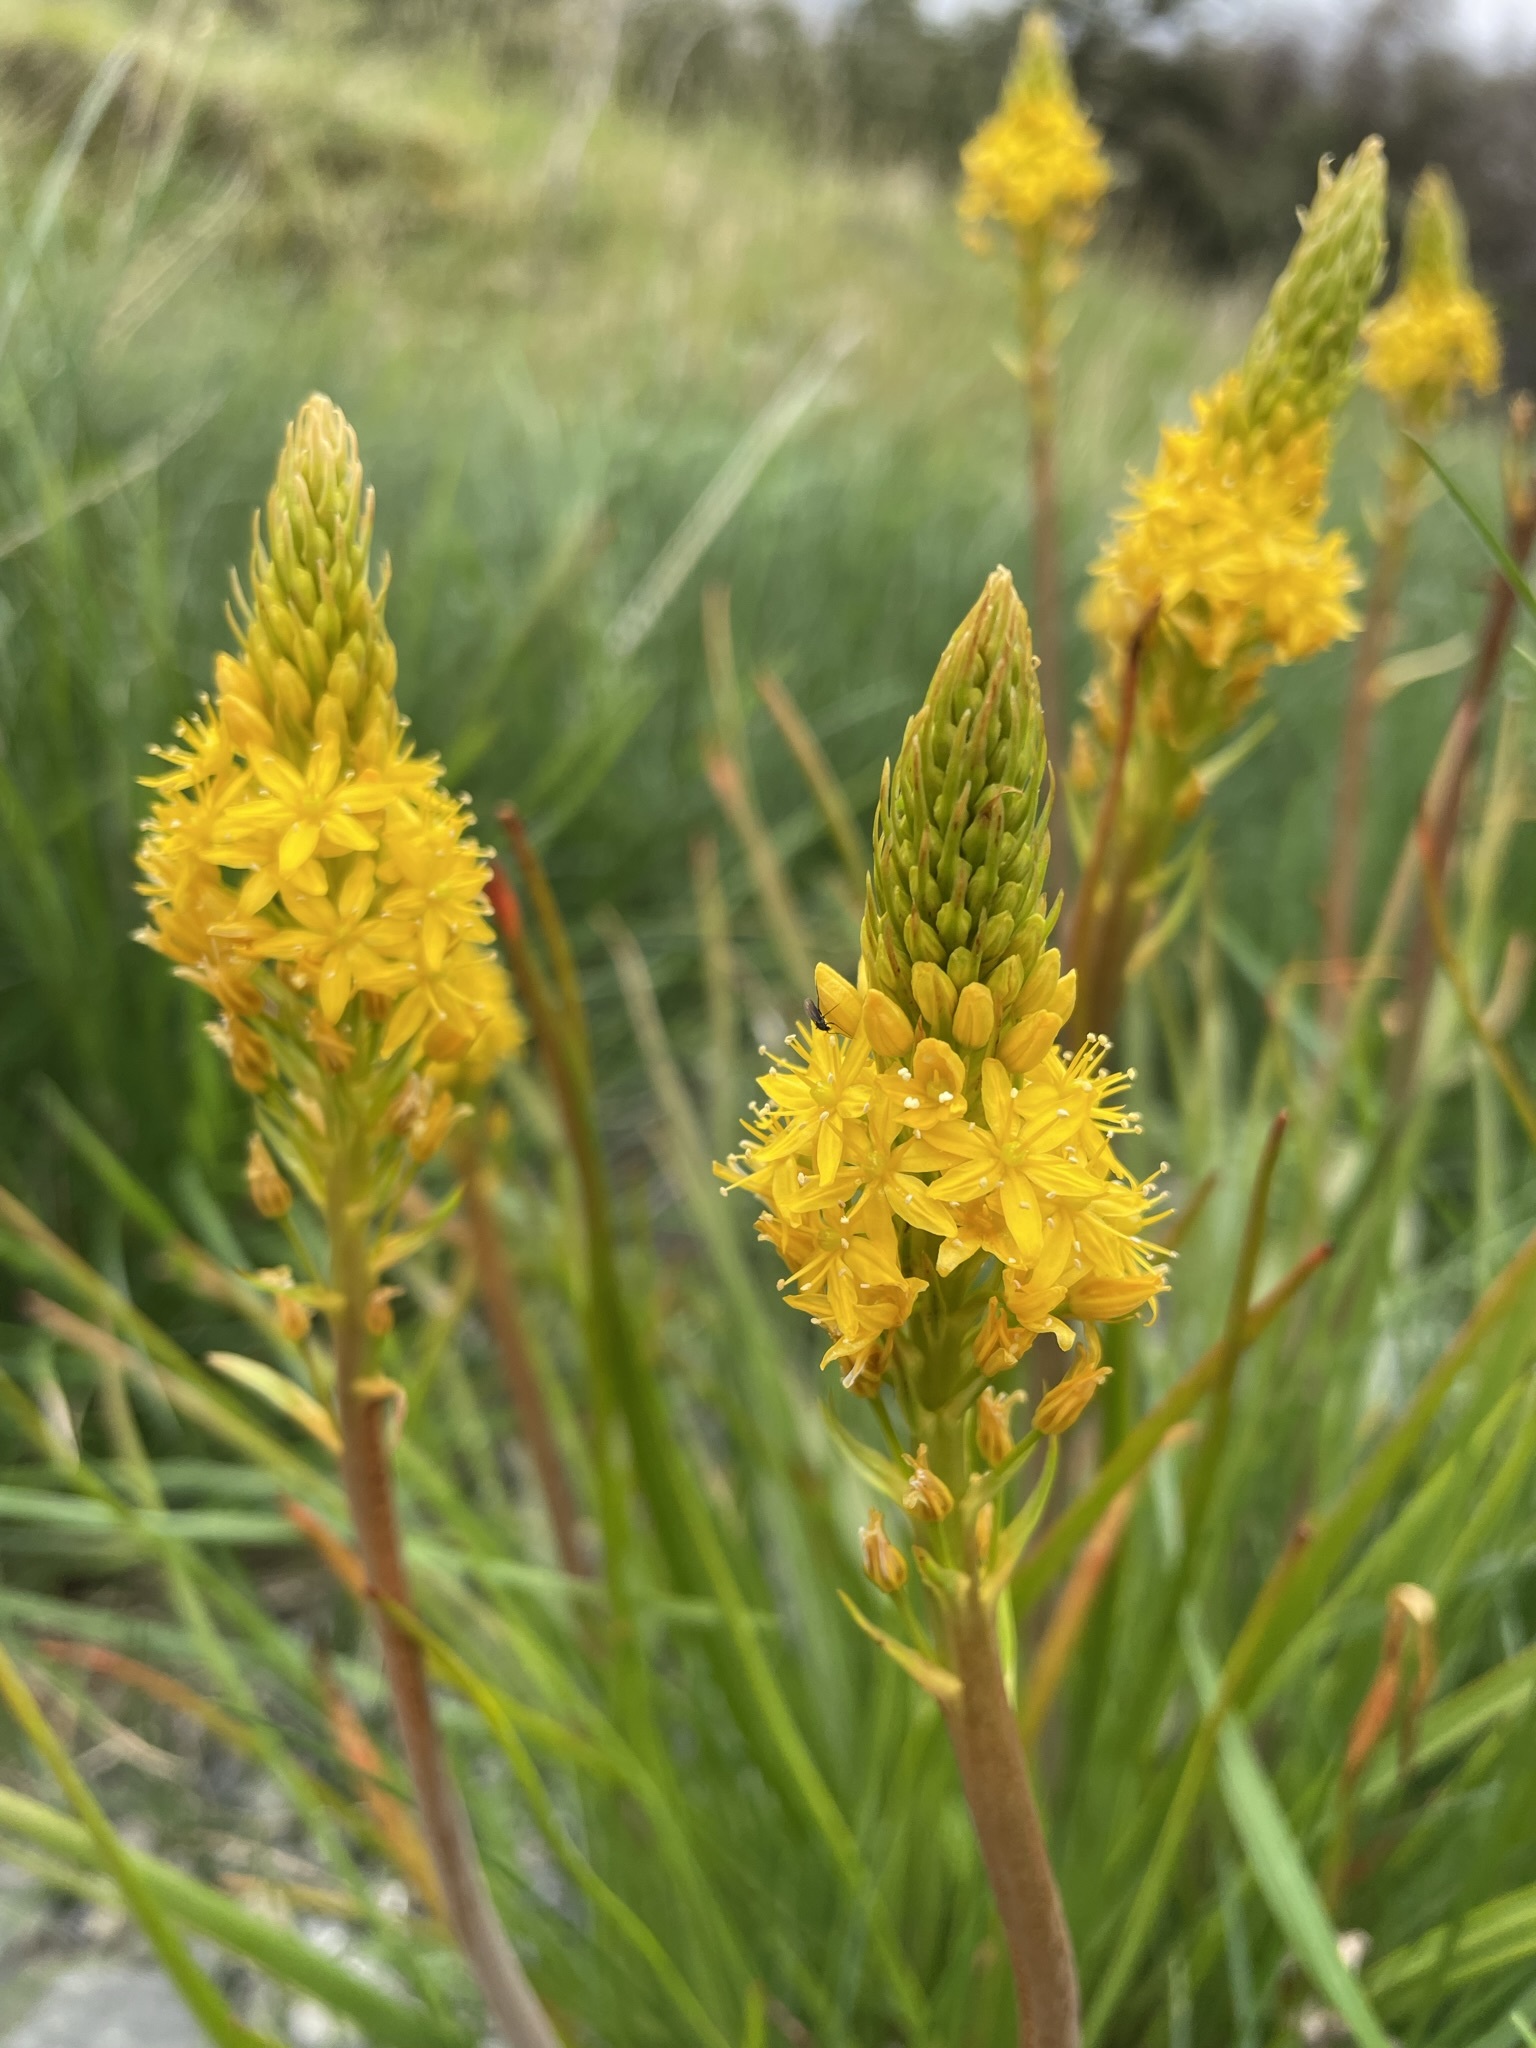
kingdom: Plantae
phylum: Tracheophyta
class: Liliopsida
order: Asparagales
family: Asphodelaceae
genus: Bulbinella
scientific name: Bulbinella angustifolia
